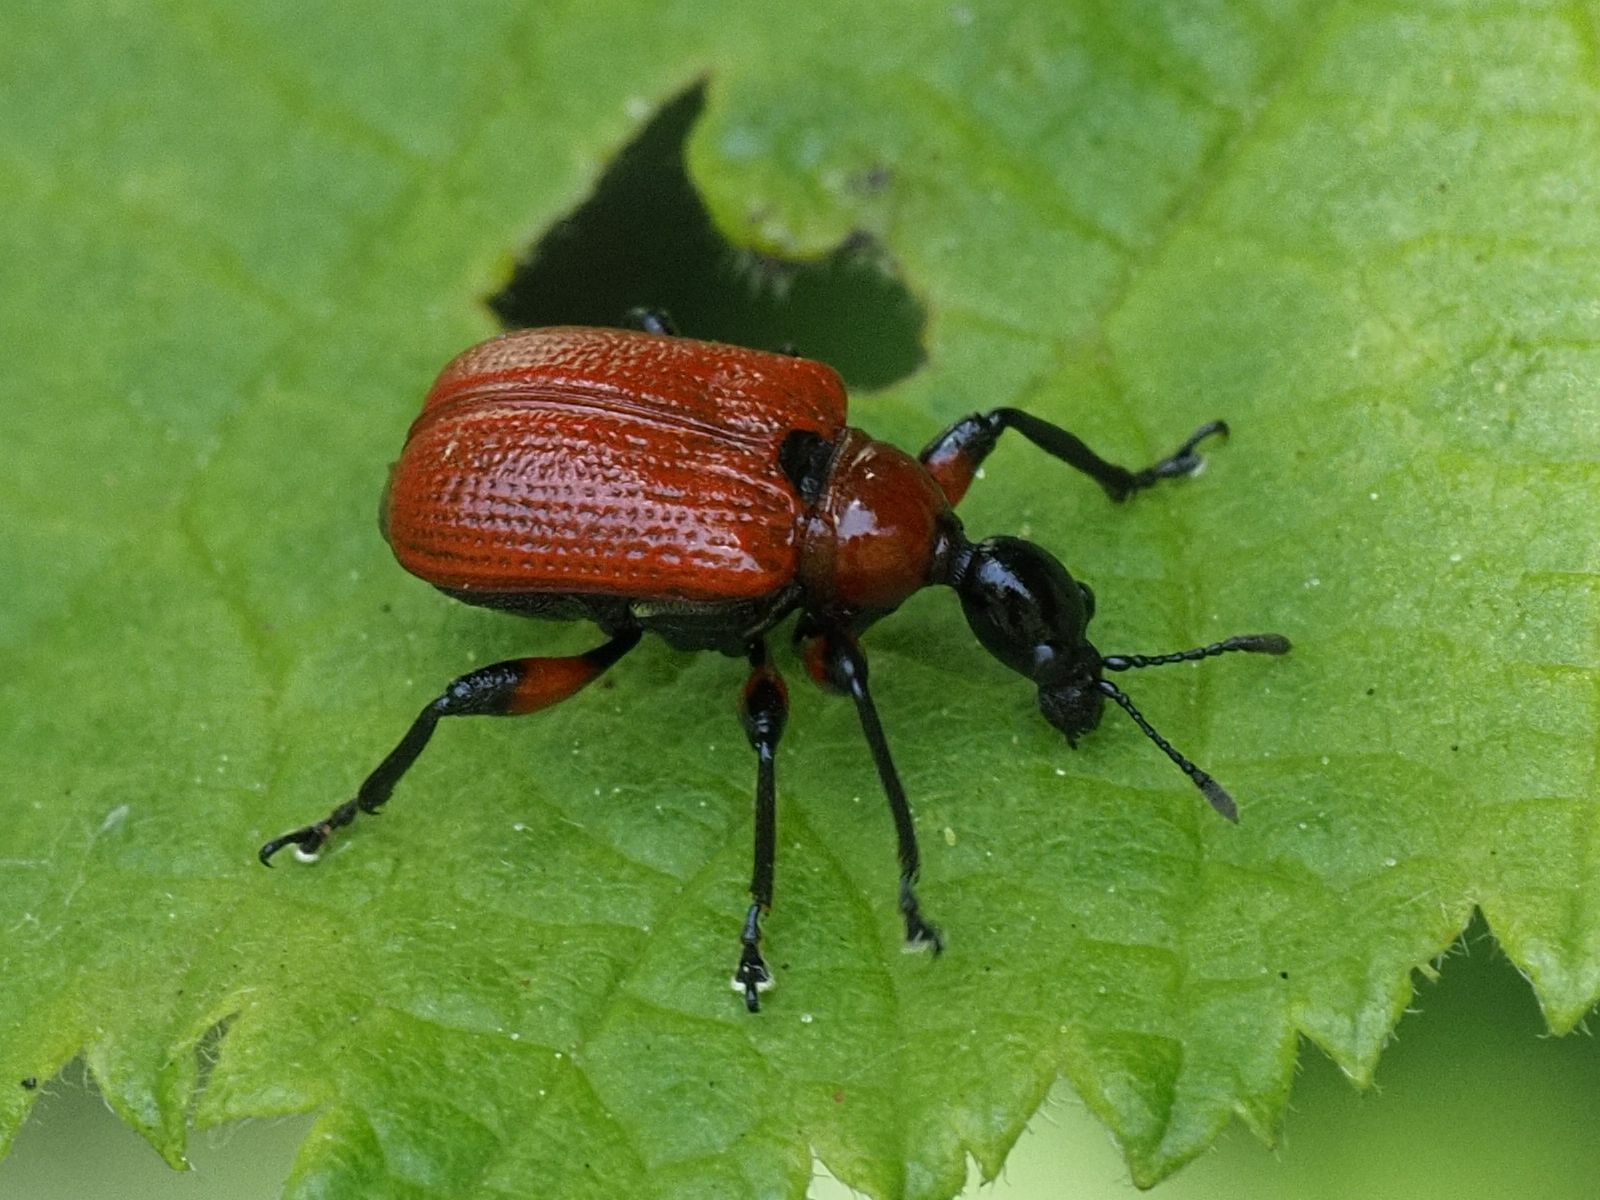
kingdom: Animalia
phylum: Arthropoda
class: Insecta
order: Coleoptera
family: Attelabidae
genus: Apoderus
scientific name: Apoderus coryli
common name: Hazel leaf roller
